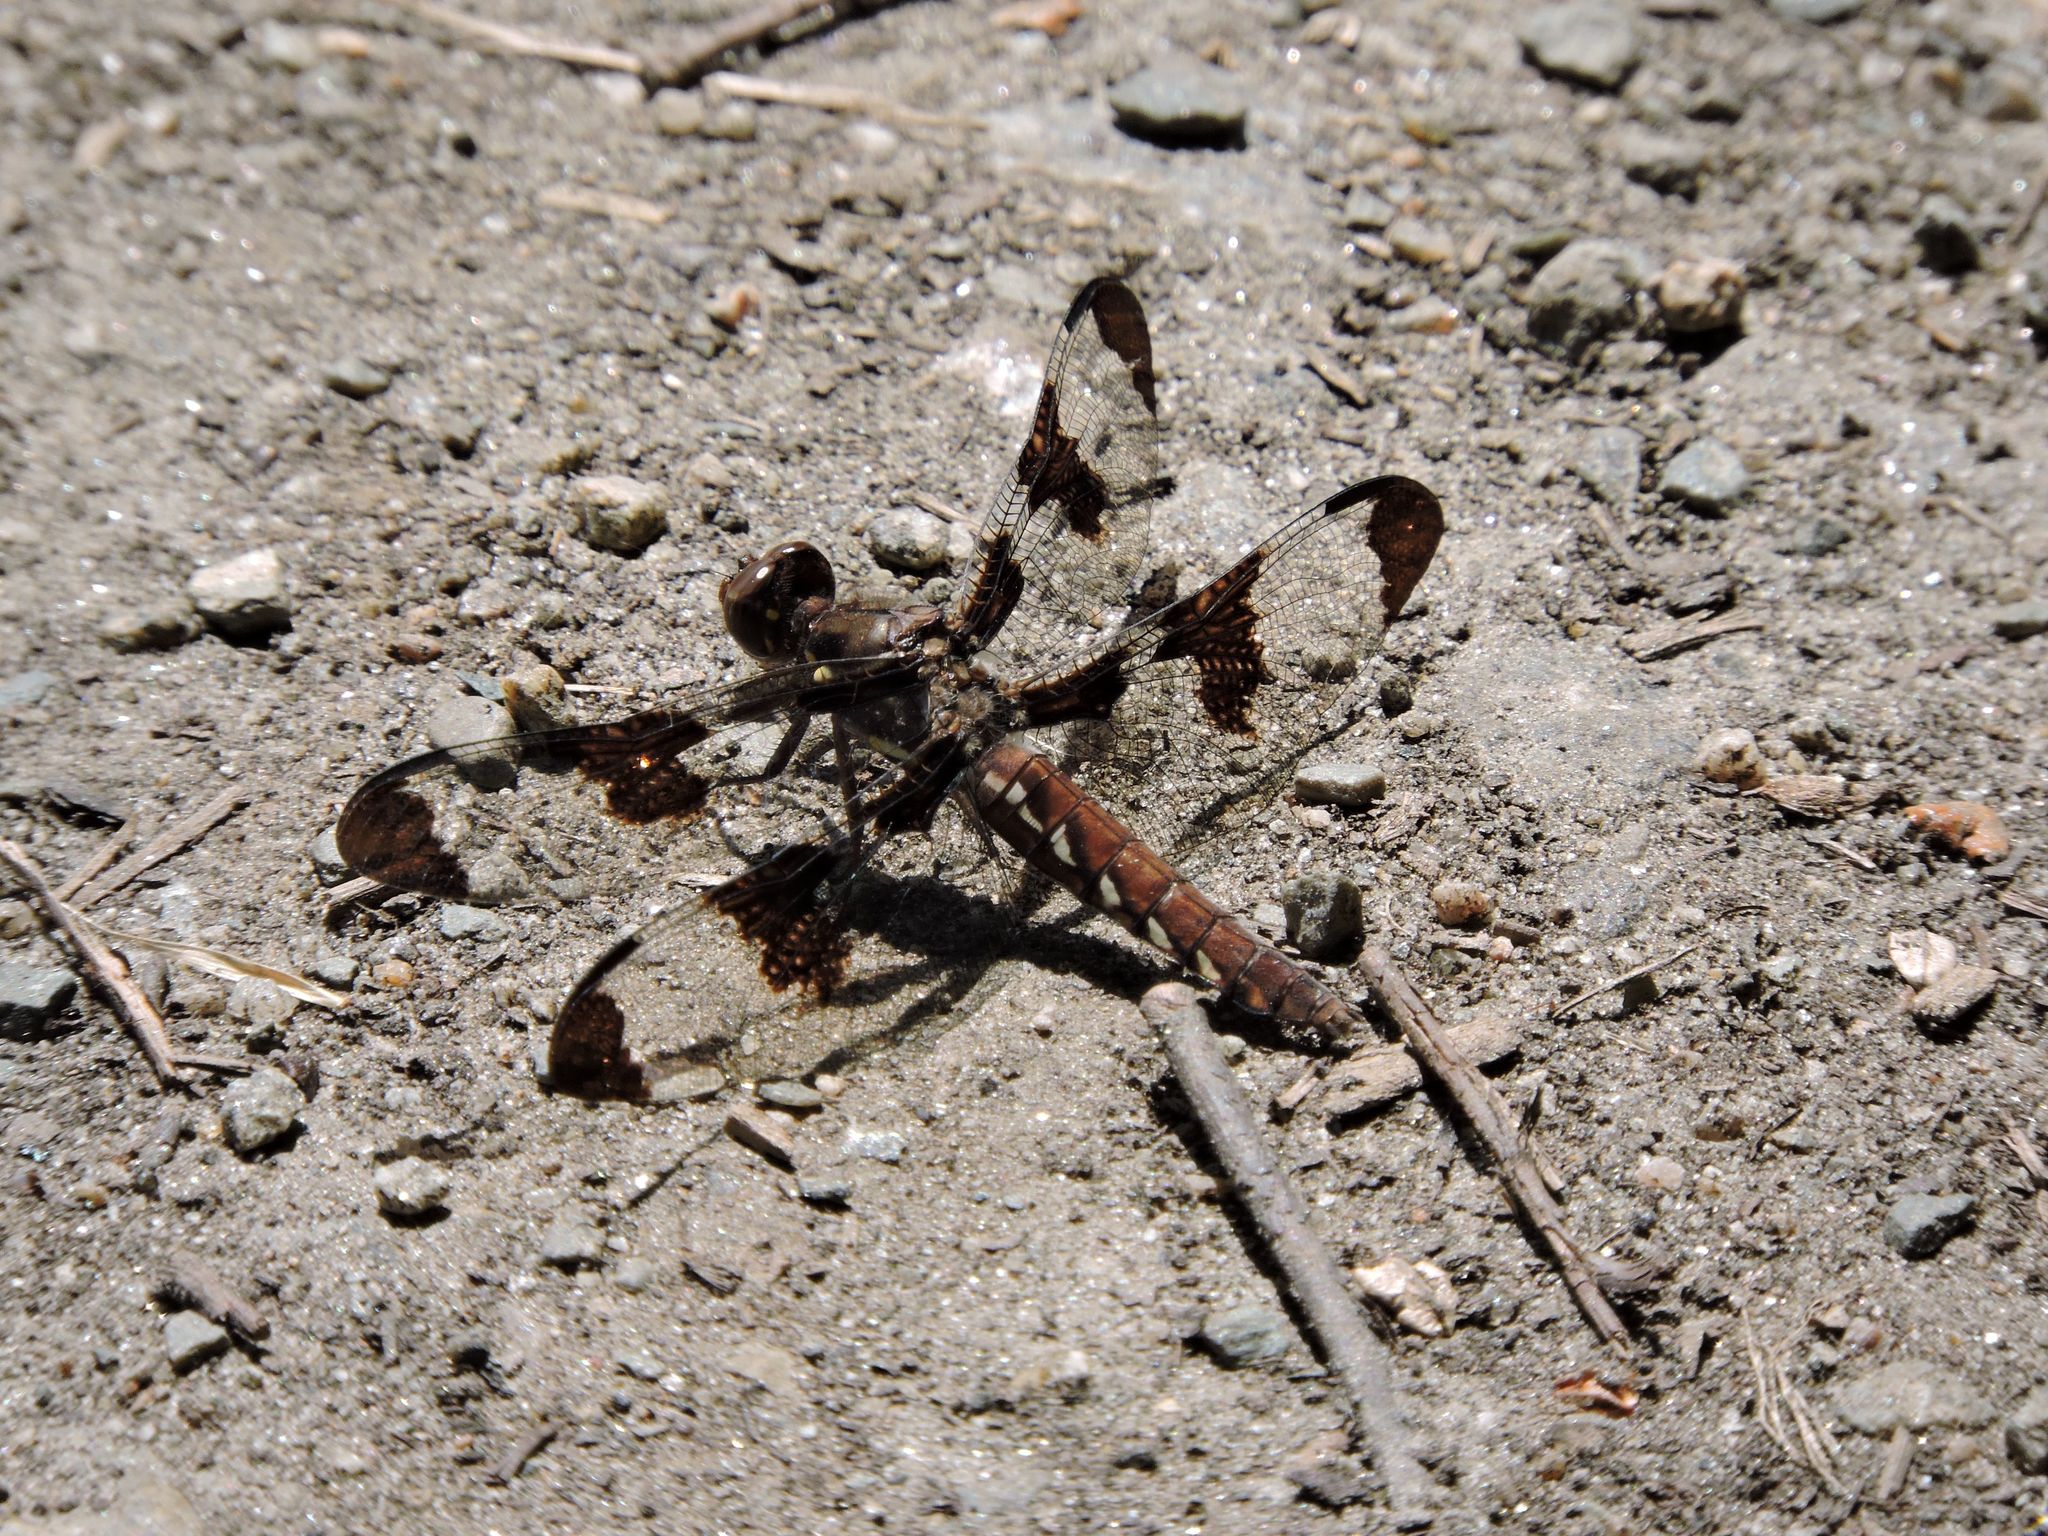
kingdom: Animalia
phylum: Arthropoda
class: Insecta
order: Odonata
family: Libellulidae
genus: Plathemis
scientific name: Plathemis lydia
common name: Common whitetail
